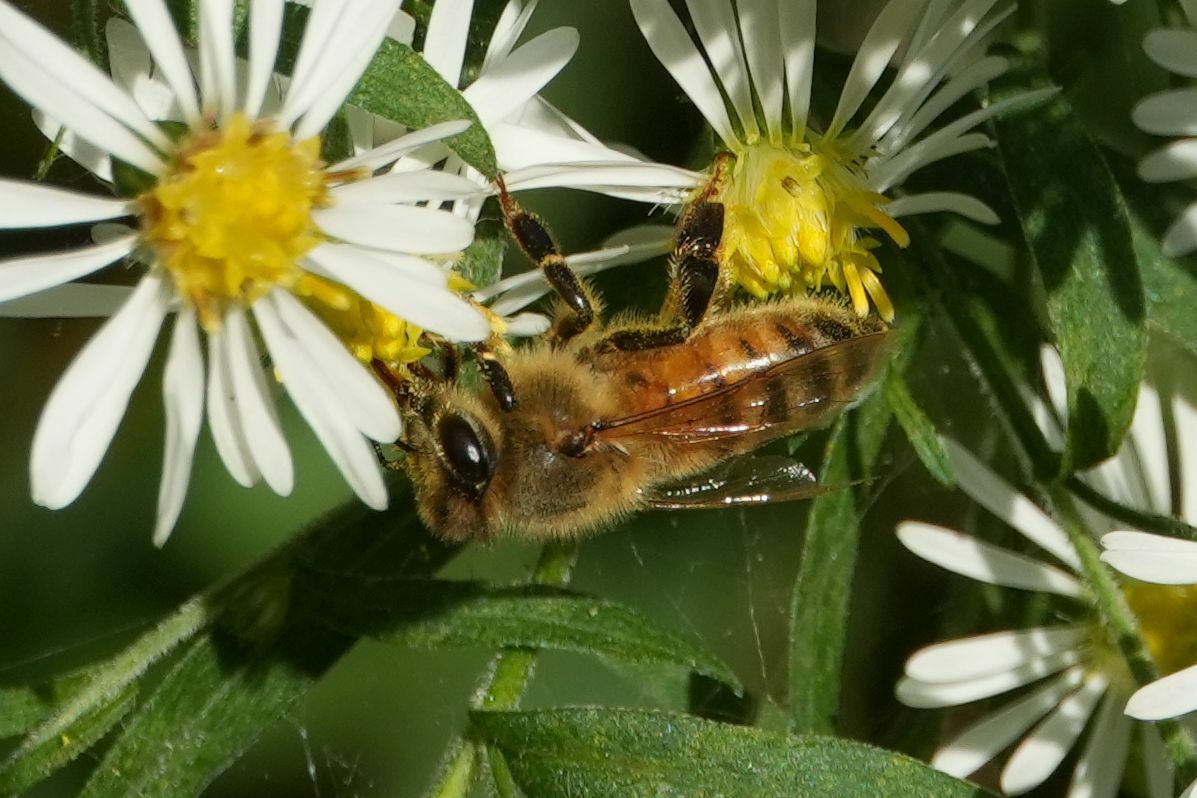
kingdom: Animalia
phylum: Arthropoda
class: Insecta
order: Hymenoptera
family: Apidae
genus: Apis
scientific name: Apis mellifera
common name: Honey bee
